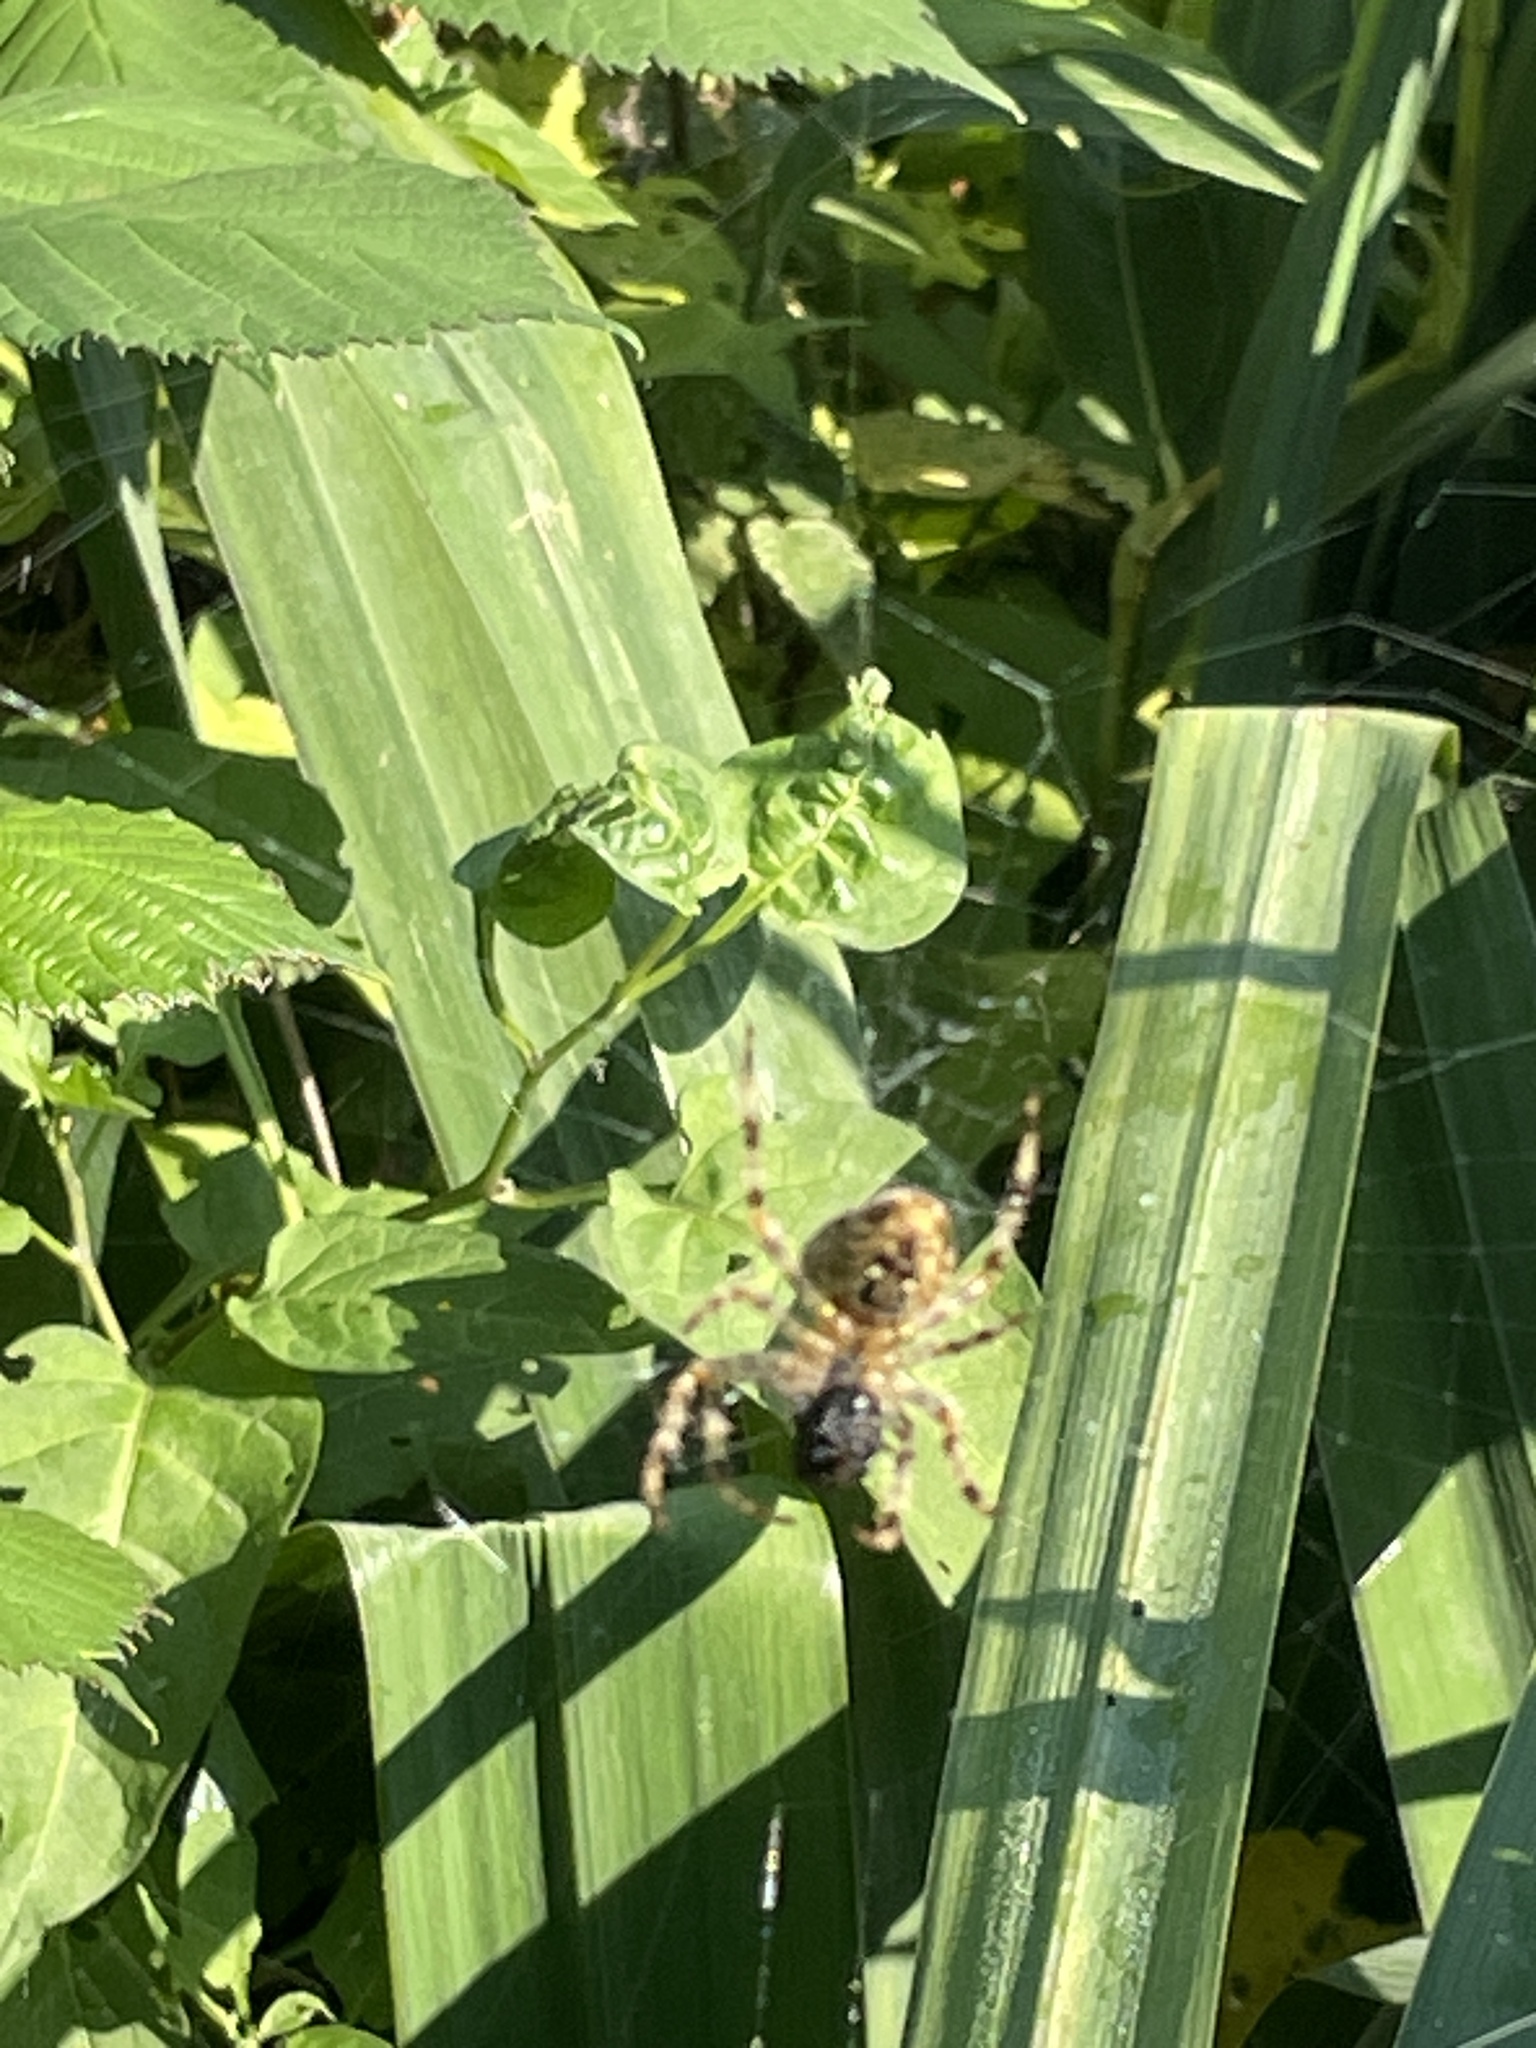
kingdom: Animalia
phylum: Arthropoda
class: Arachnida
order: Araneae
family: Araneidae
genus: Araneus
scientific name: Araneus diadematus
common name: Cross orbweaver
